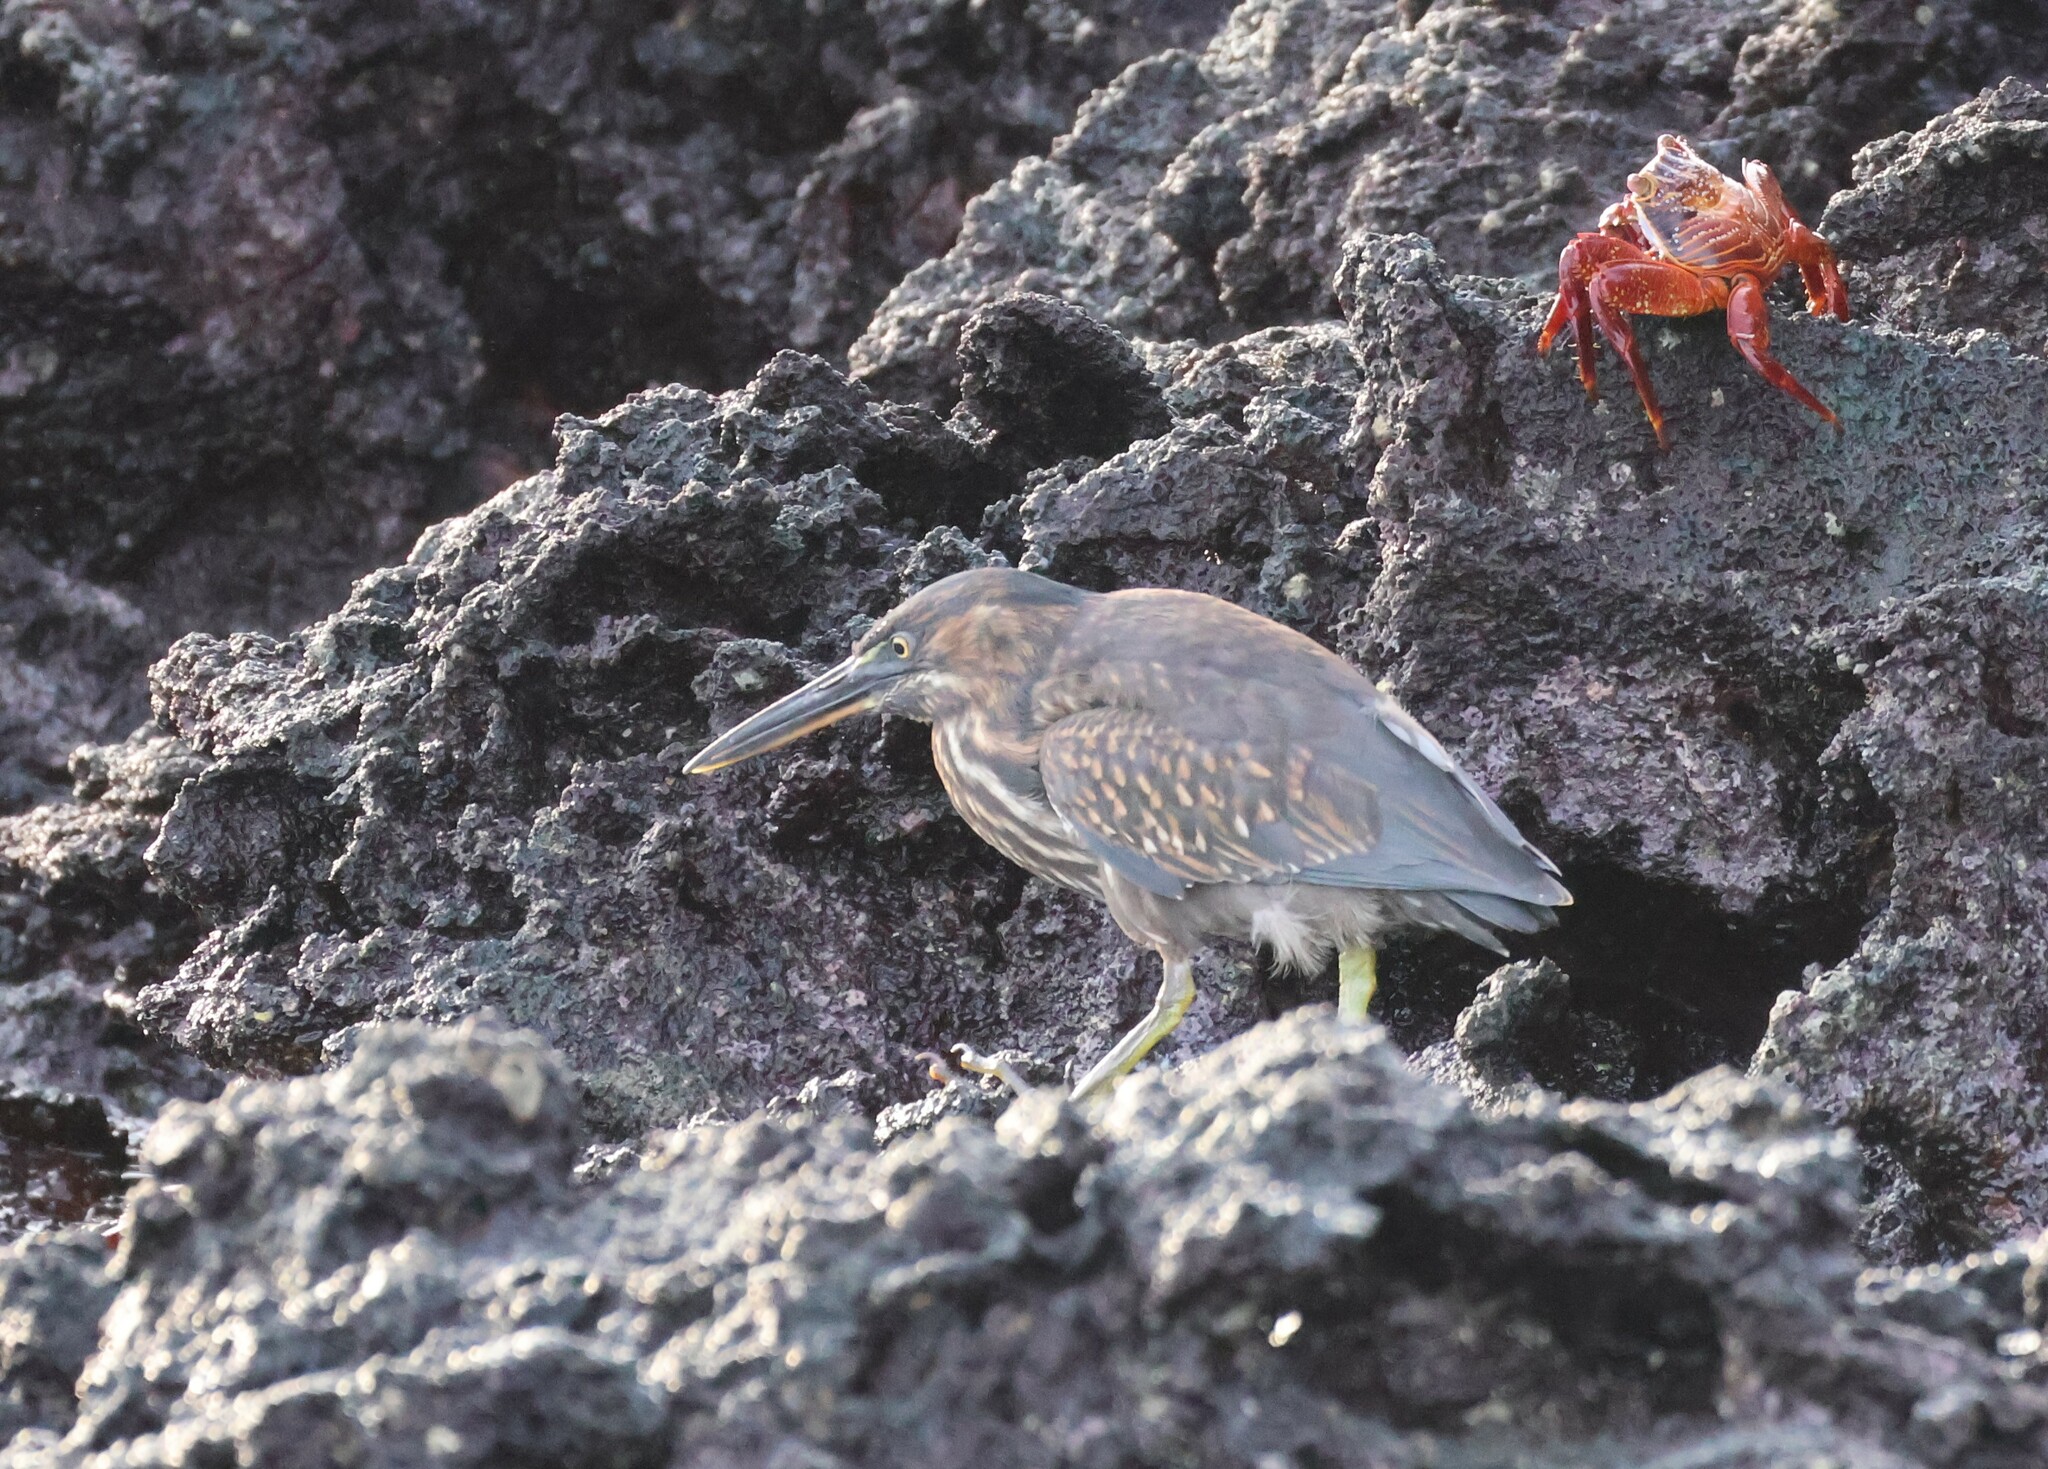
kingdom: Animalia
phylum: Chordata
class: Aves
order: Pelecaniformes
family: Ardeidae
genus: Butorides
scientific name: Butorides striata
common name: Striated heron
